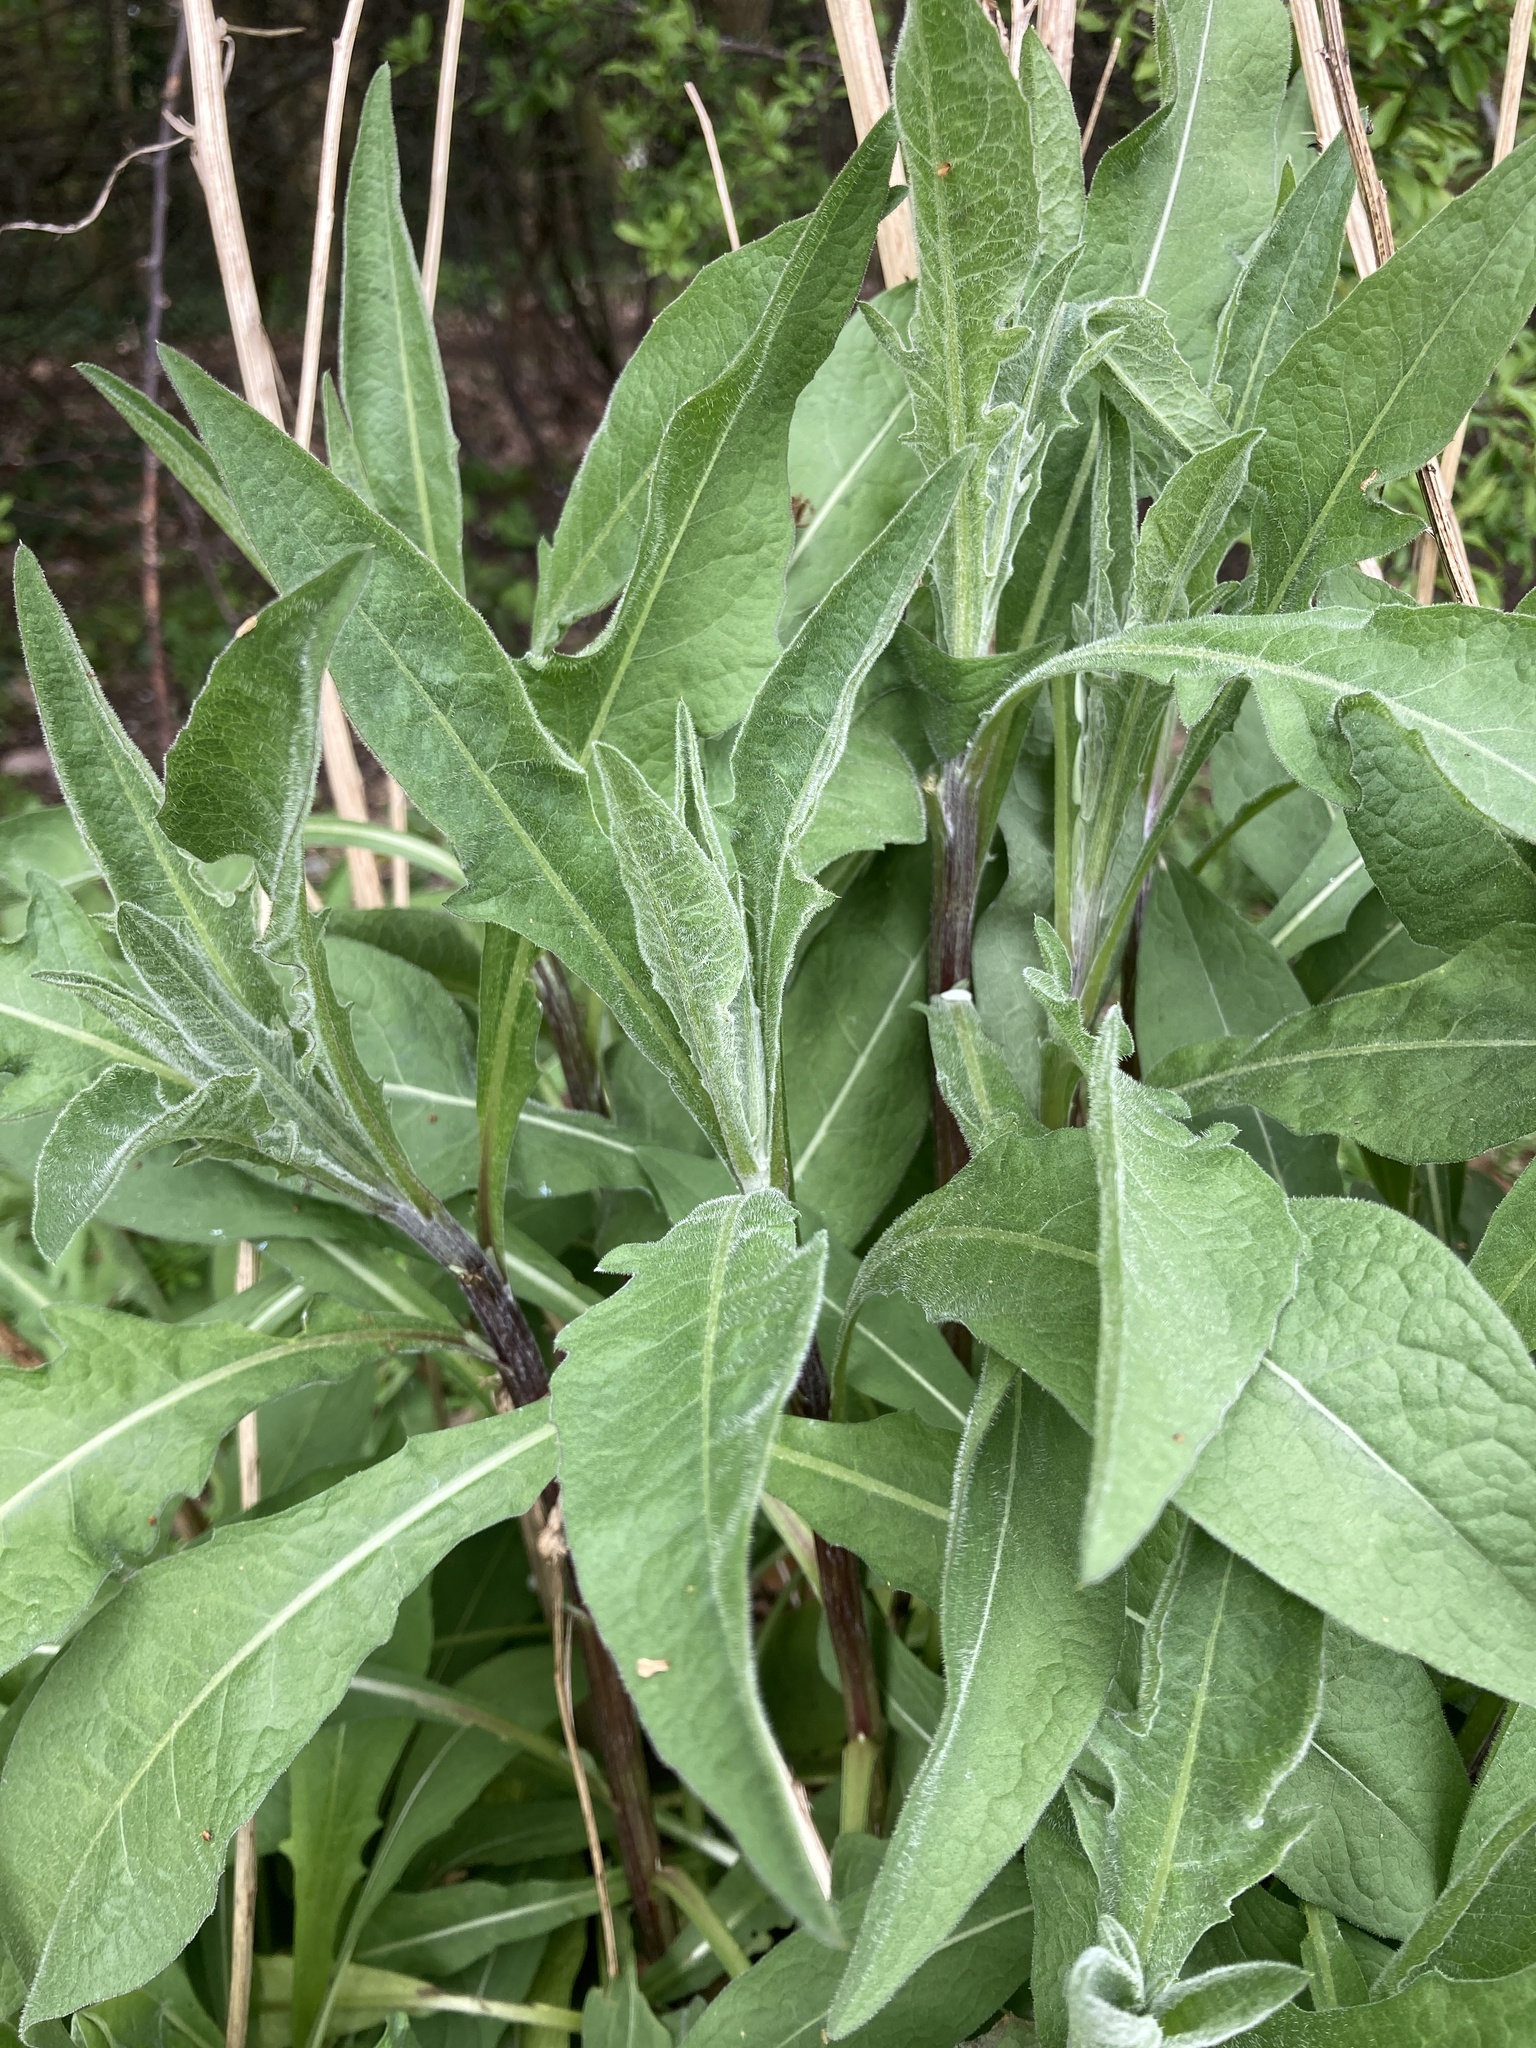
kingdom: Plantae
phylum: Tracheophyta
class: Magnoliopsida
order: Asterales
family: Asteraceae
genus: Centaurea
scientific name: Centaurea nigra
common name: Lesser knapweed
